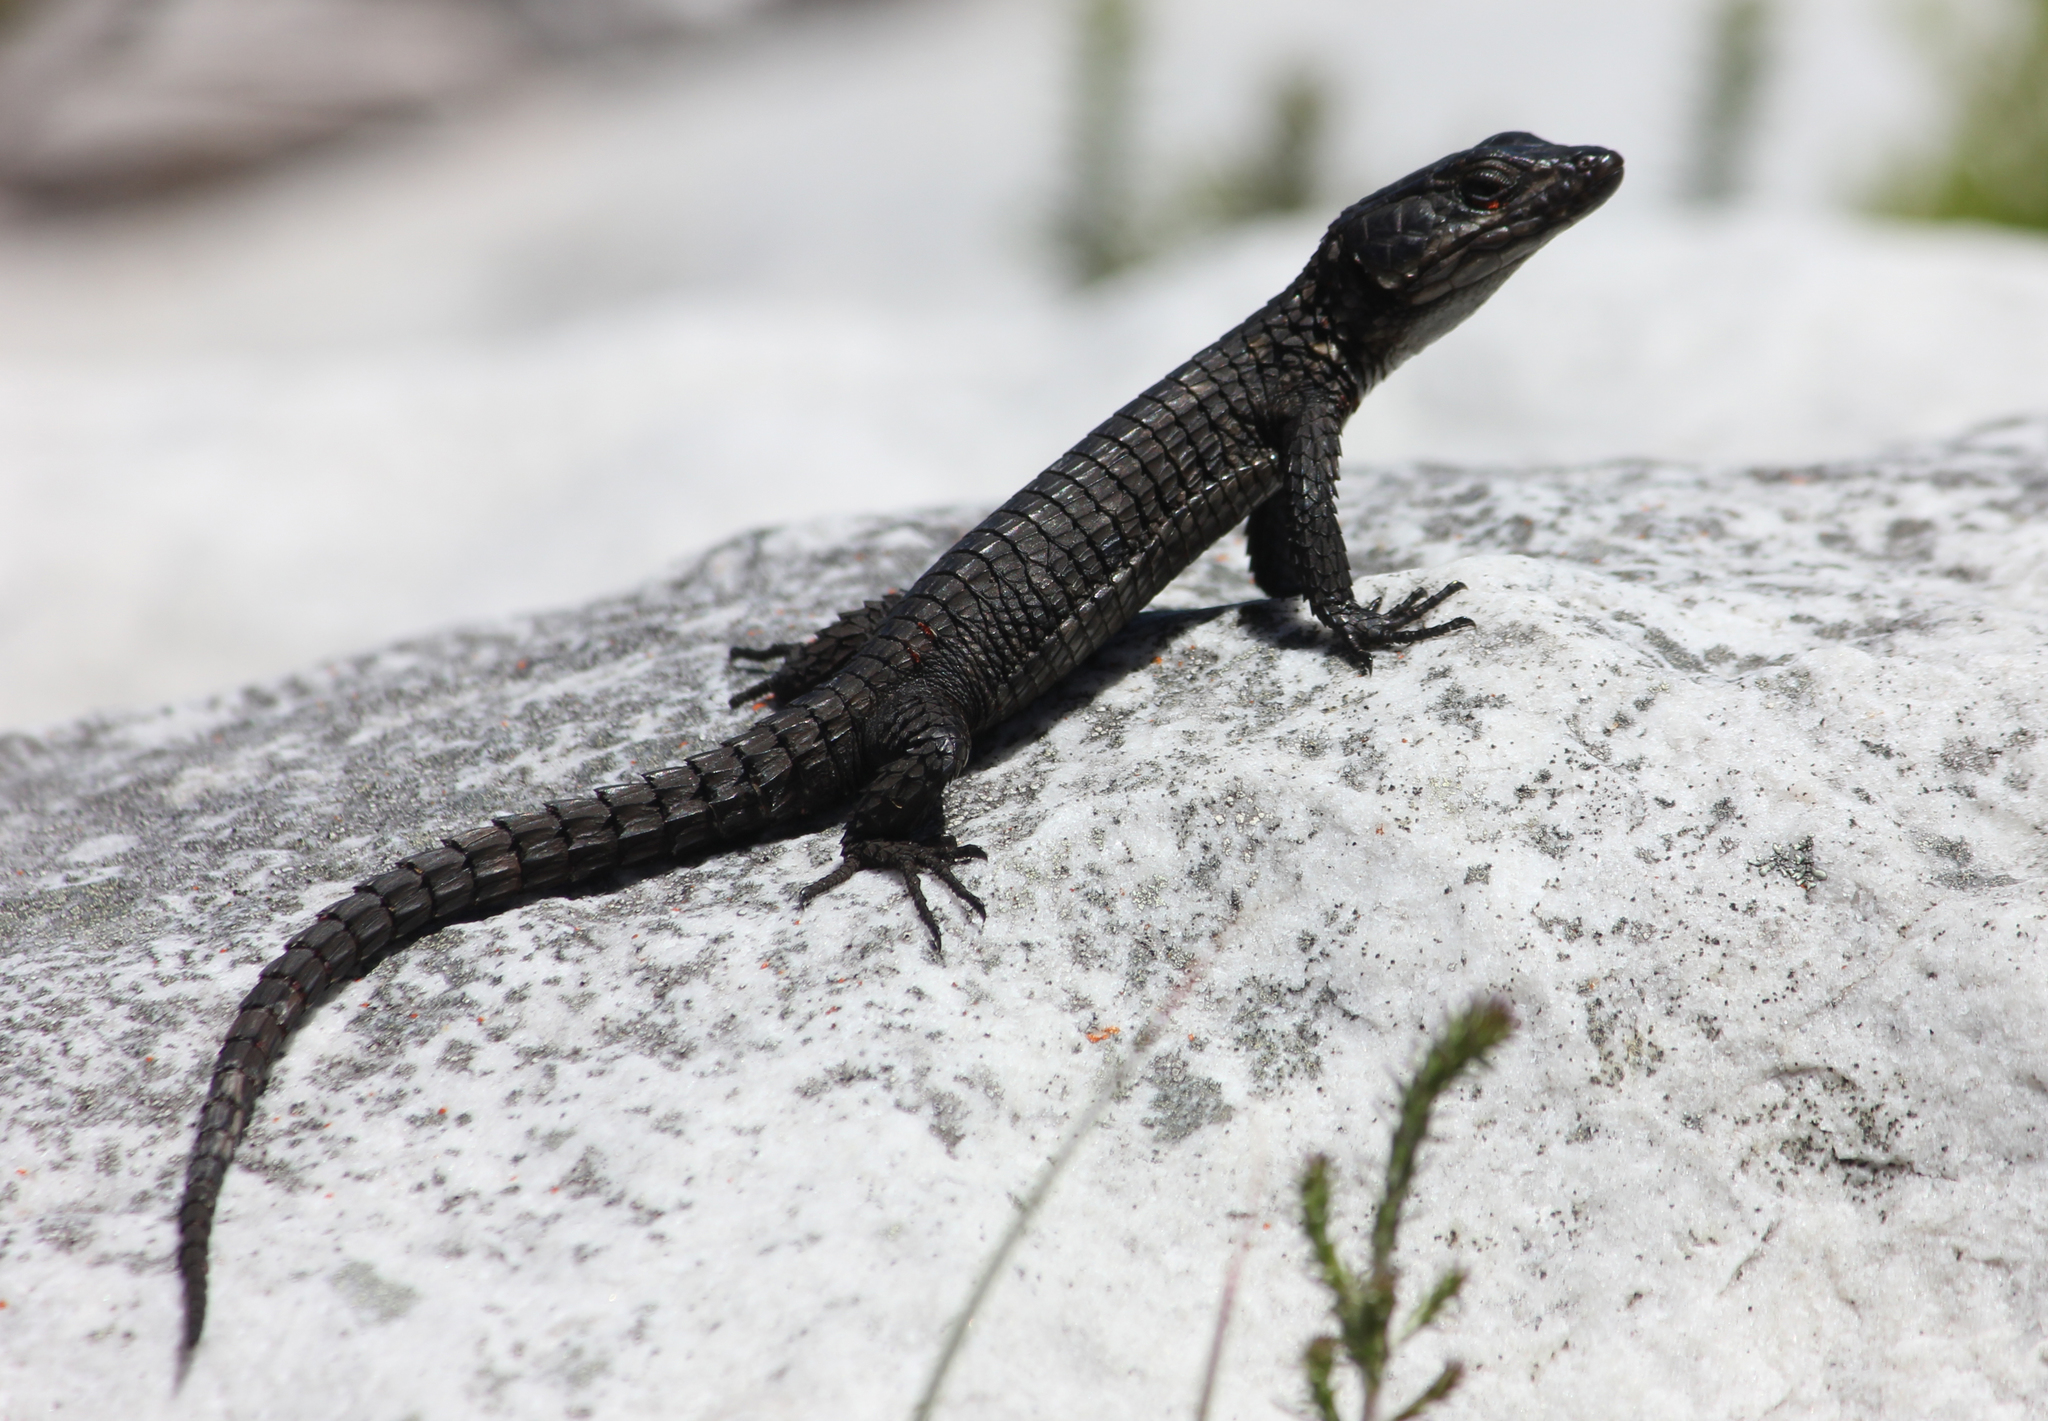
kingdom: Animalia
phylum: Chordata
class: Squamata
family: Cordylidae
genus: Cordylus
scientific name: Cordylus niger
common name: Black girdled lizard
